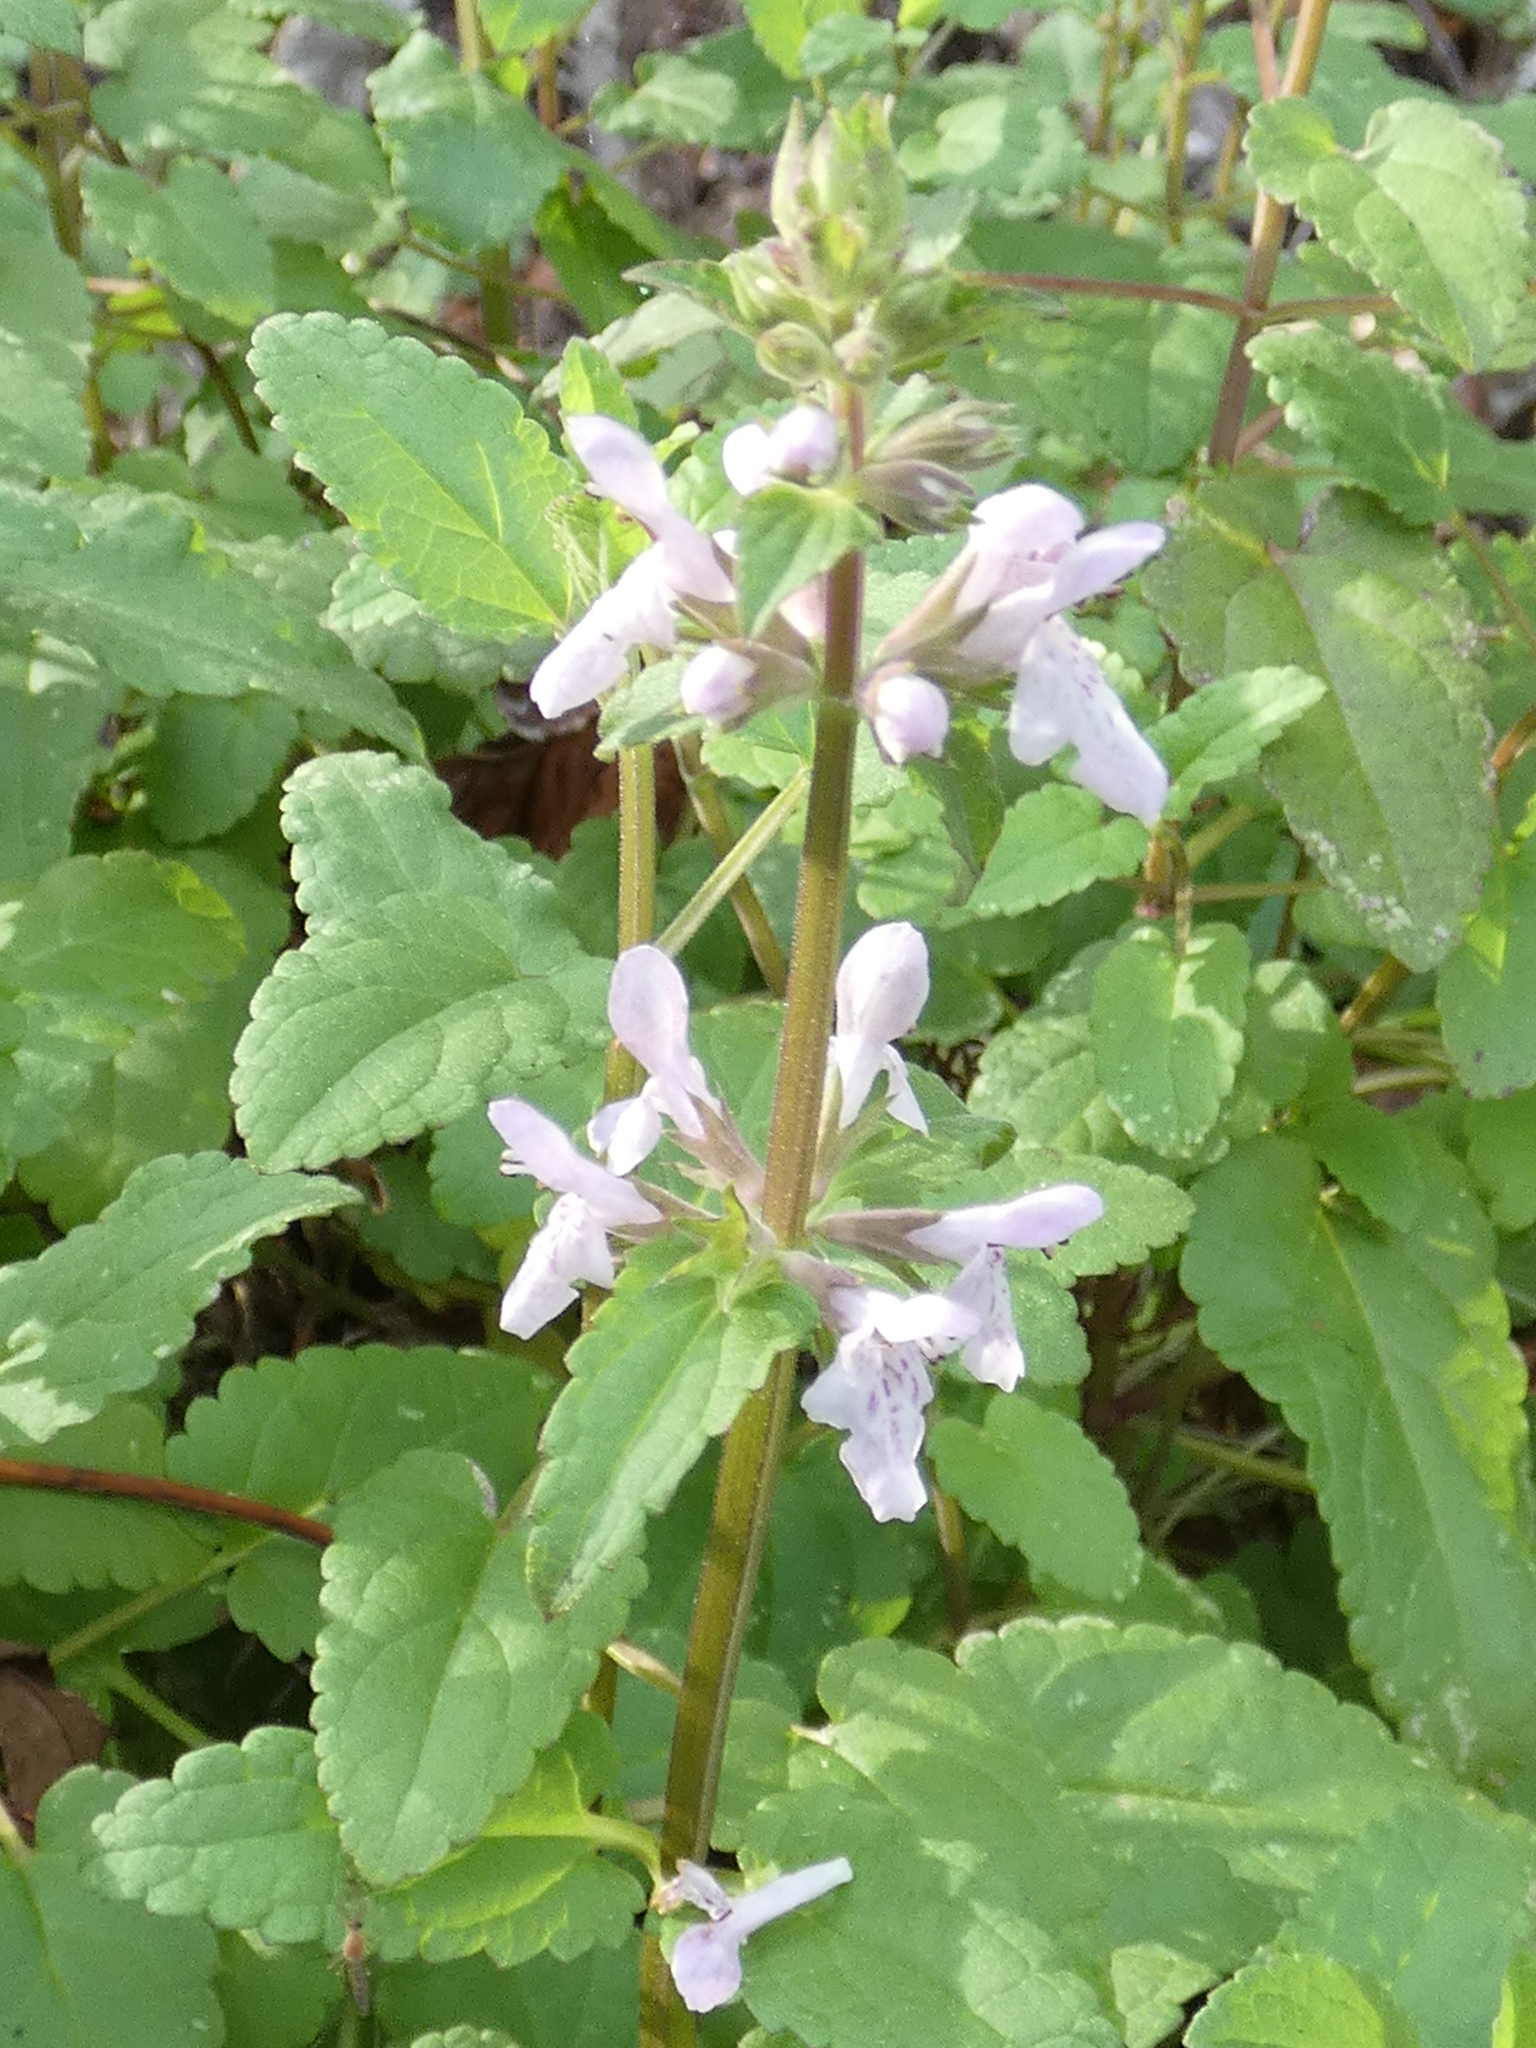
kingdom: Plantae
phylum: Tracheophyta
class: Magnoliopsida
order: Lamiales
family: Lamiaceae
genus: Stachys
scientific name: Stachys floridana
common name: Florida betony
